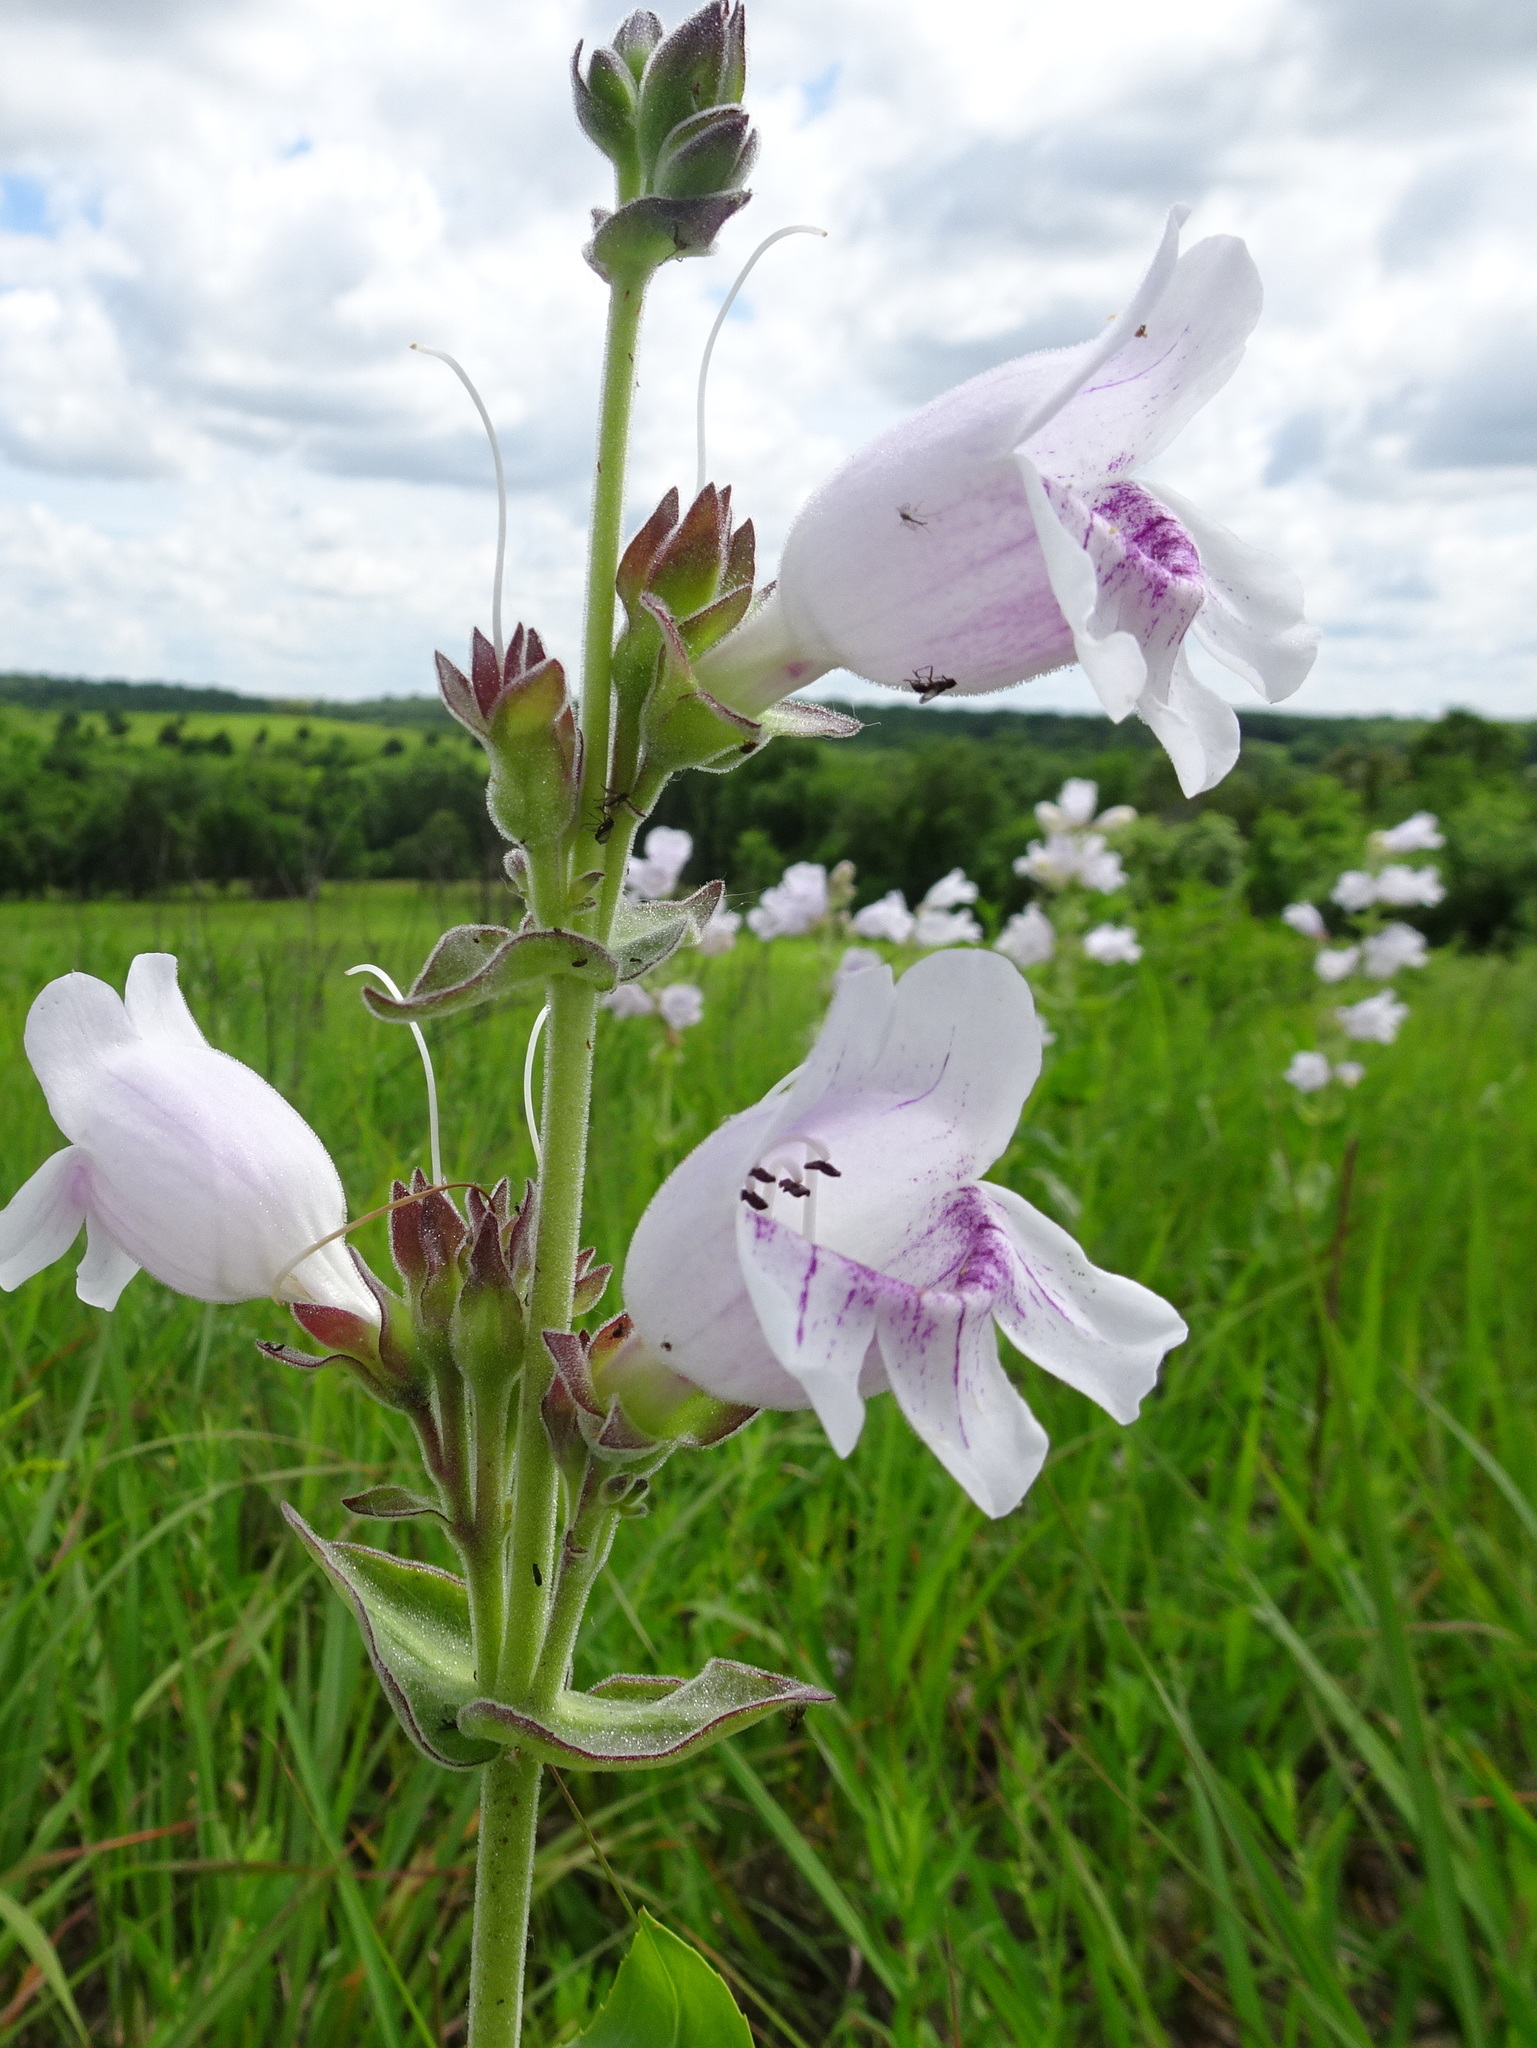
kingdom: Plantae
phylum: Tracheophyta
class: Magnoliopsida
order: Lamiales
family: Plantaginaceae
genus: Penstemon
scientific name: Penstemon cobaea
